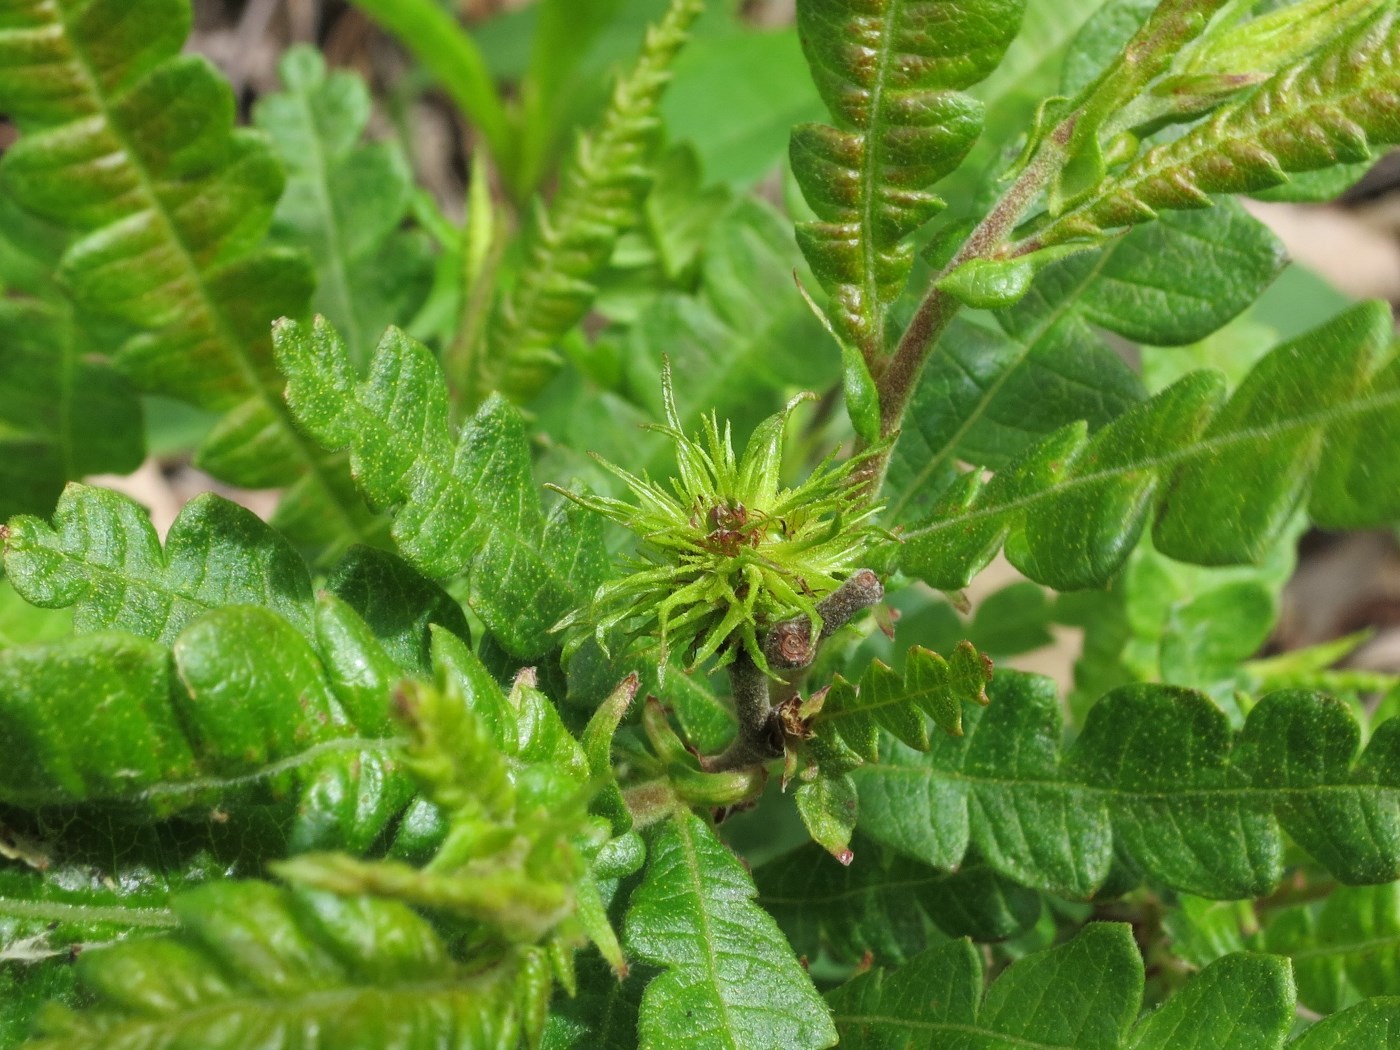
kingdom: Plantae
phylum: Tracheophyta
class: Magnoliopsida
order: Fagales
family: Myricaceae
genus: Comptonia
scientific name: Comptonia peregrina
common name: Sweet-fern
